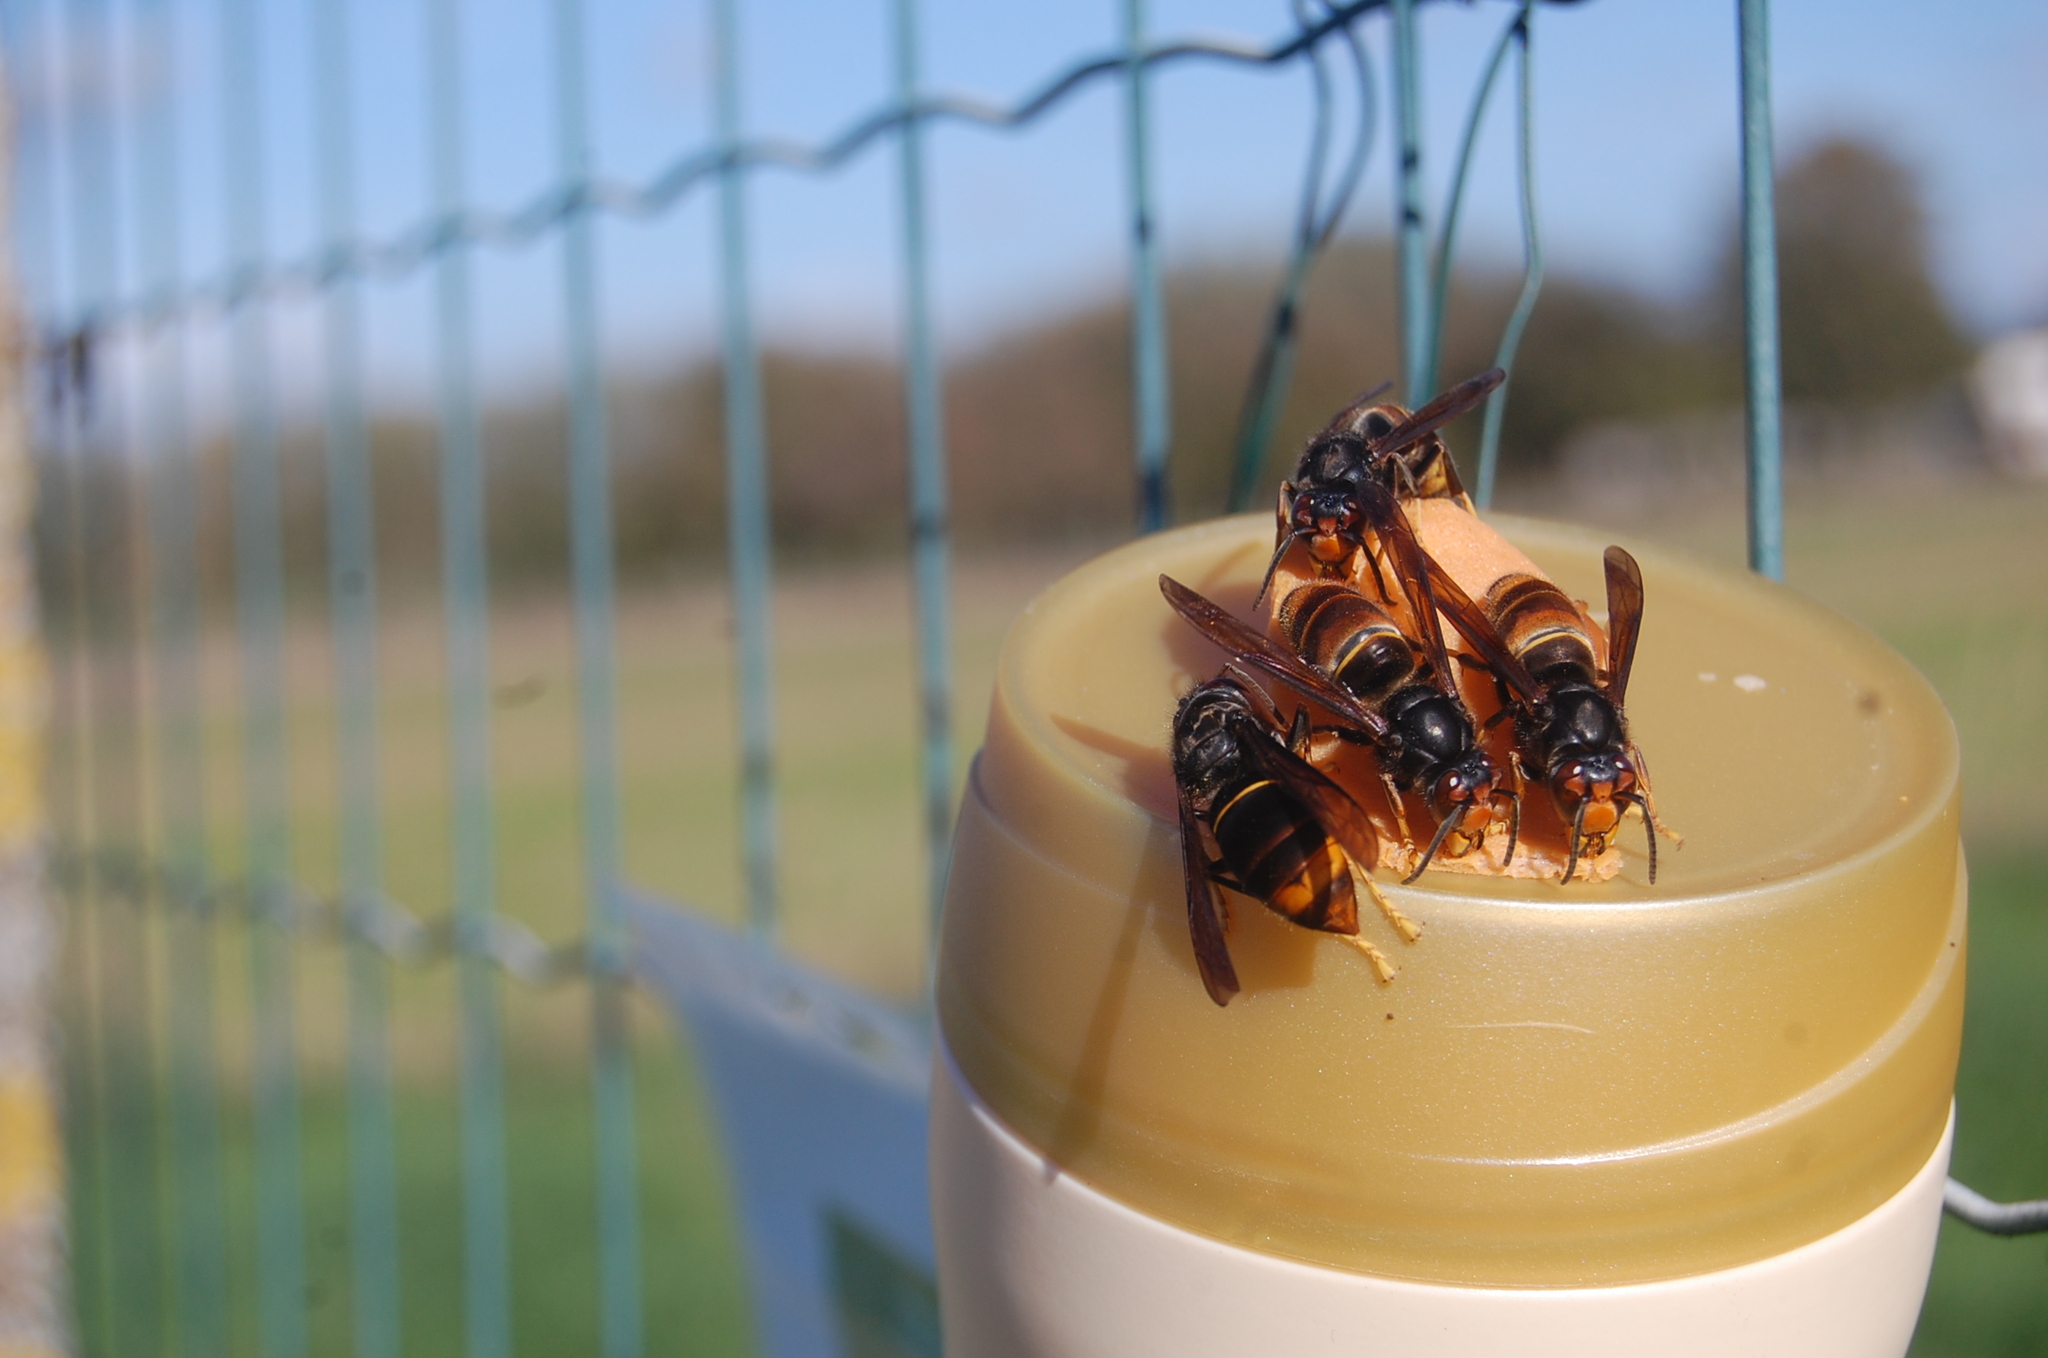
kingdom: Animalia
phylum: Arthropoda
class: Insecta
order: Hymenoptera
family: Vespidae
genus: Vespa
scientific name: Vespa velutina
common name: Asian hornet
